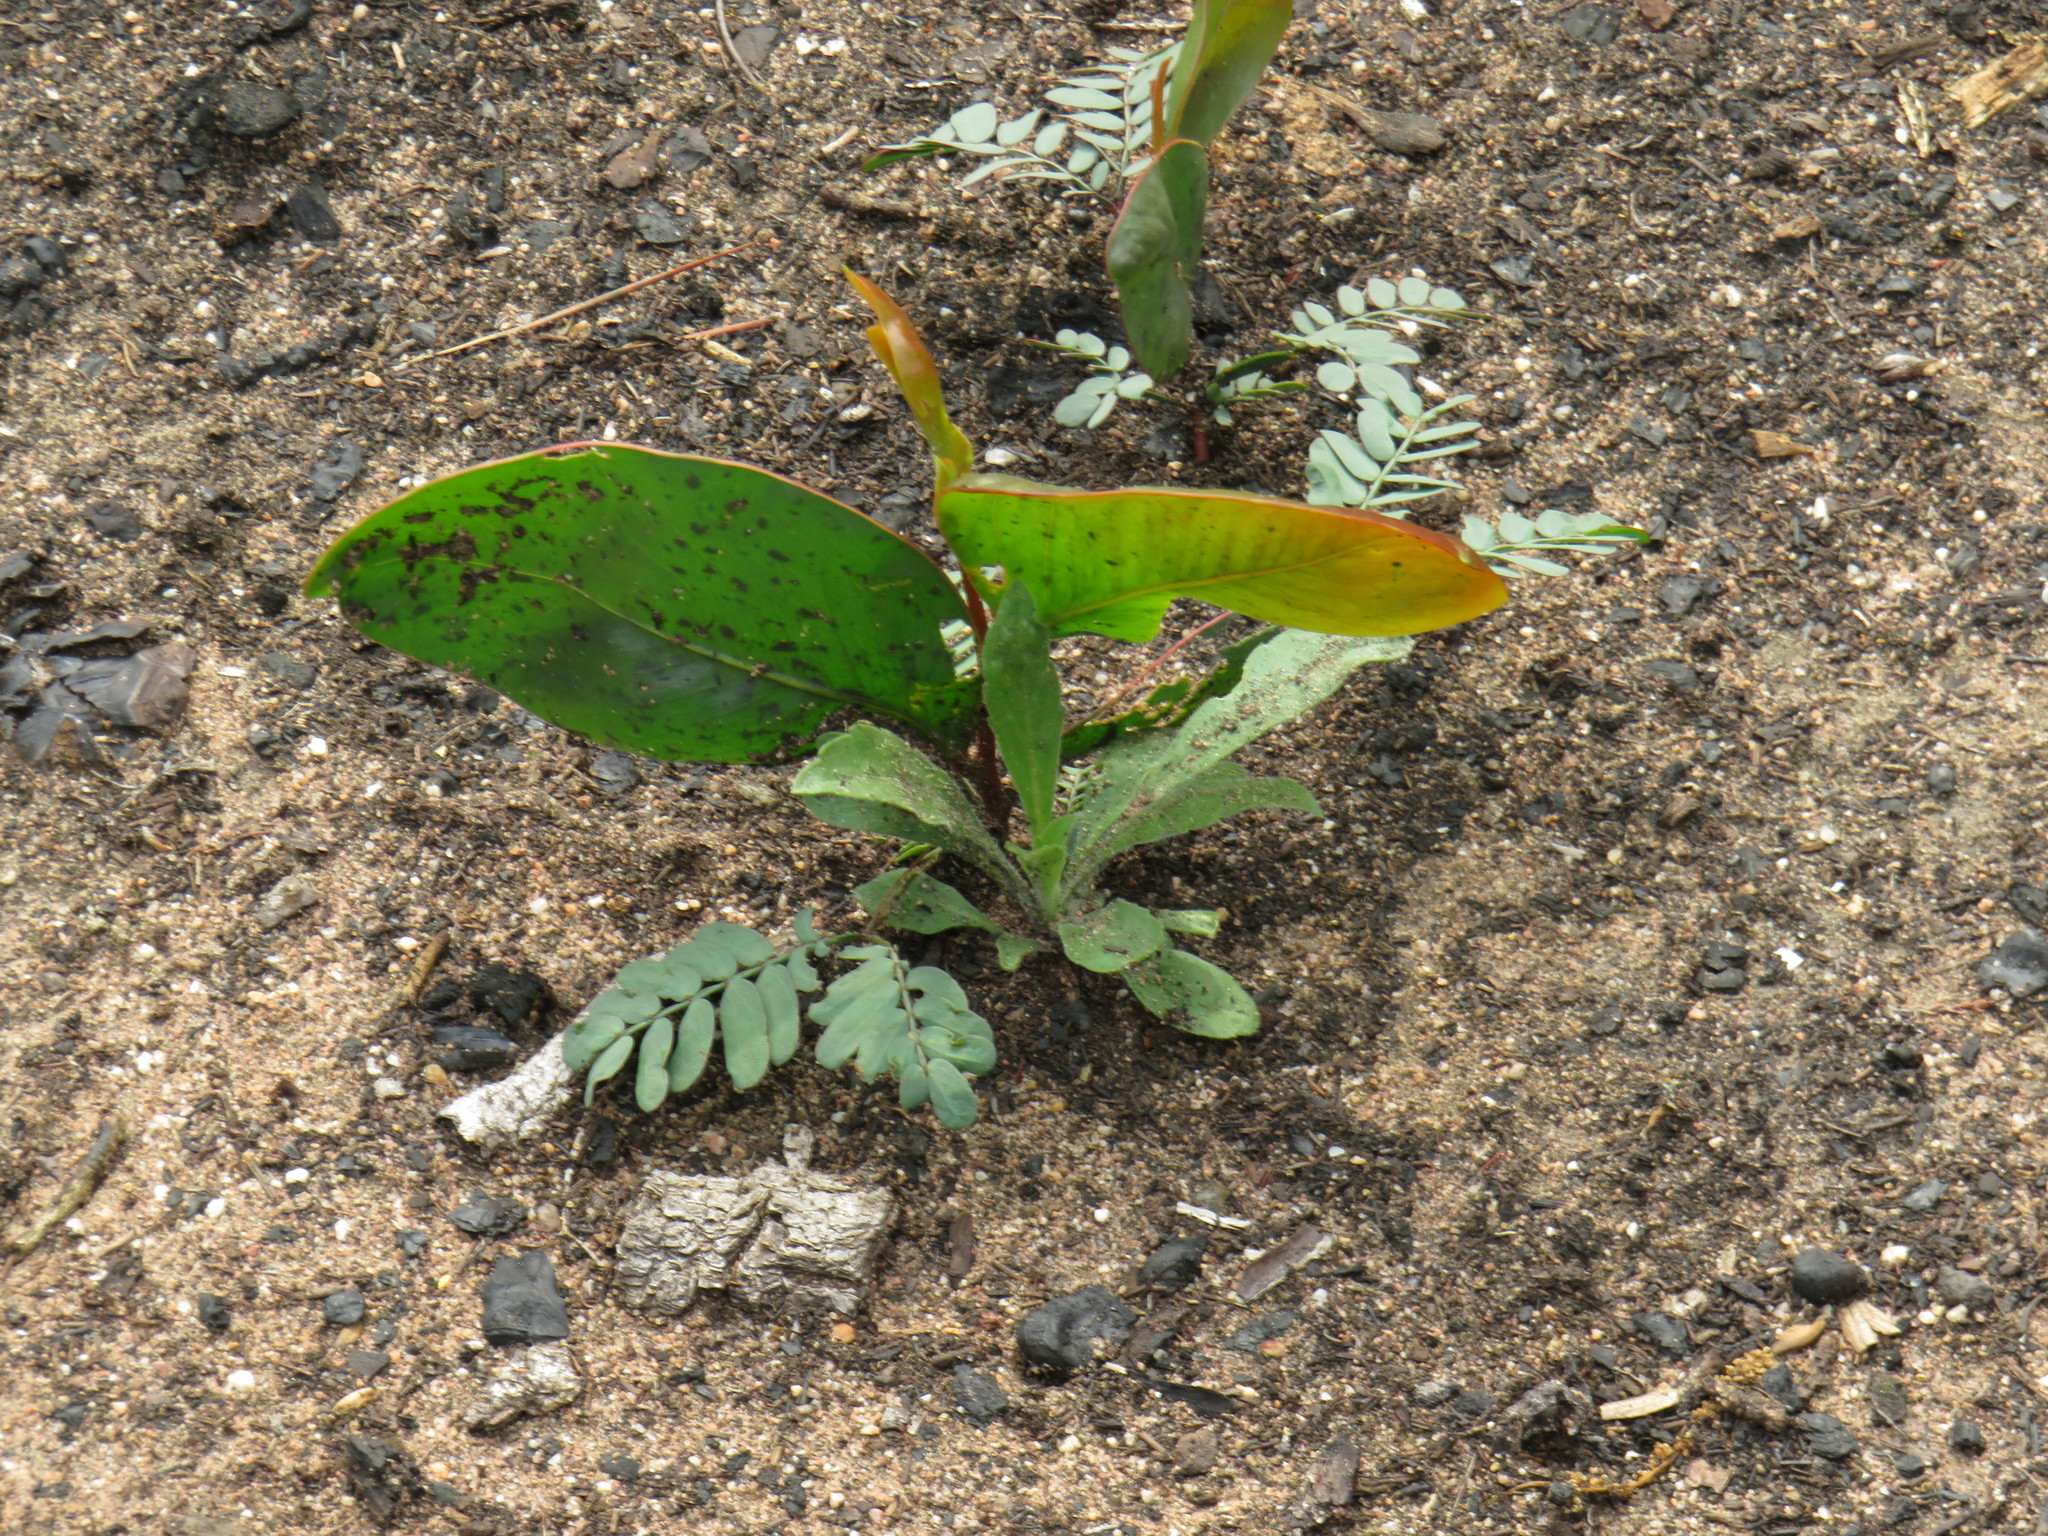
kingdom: Plantae
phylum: Tracheophyta
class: Magnoliopsida
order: Fabales
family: Fabaceae
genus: Acacia
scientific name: Acacia pycnantha
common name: Golden wattle
